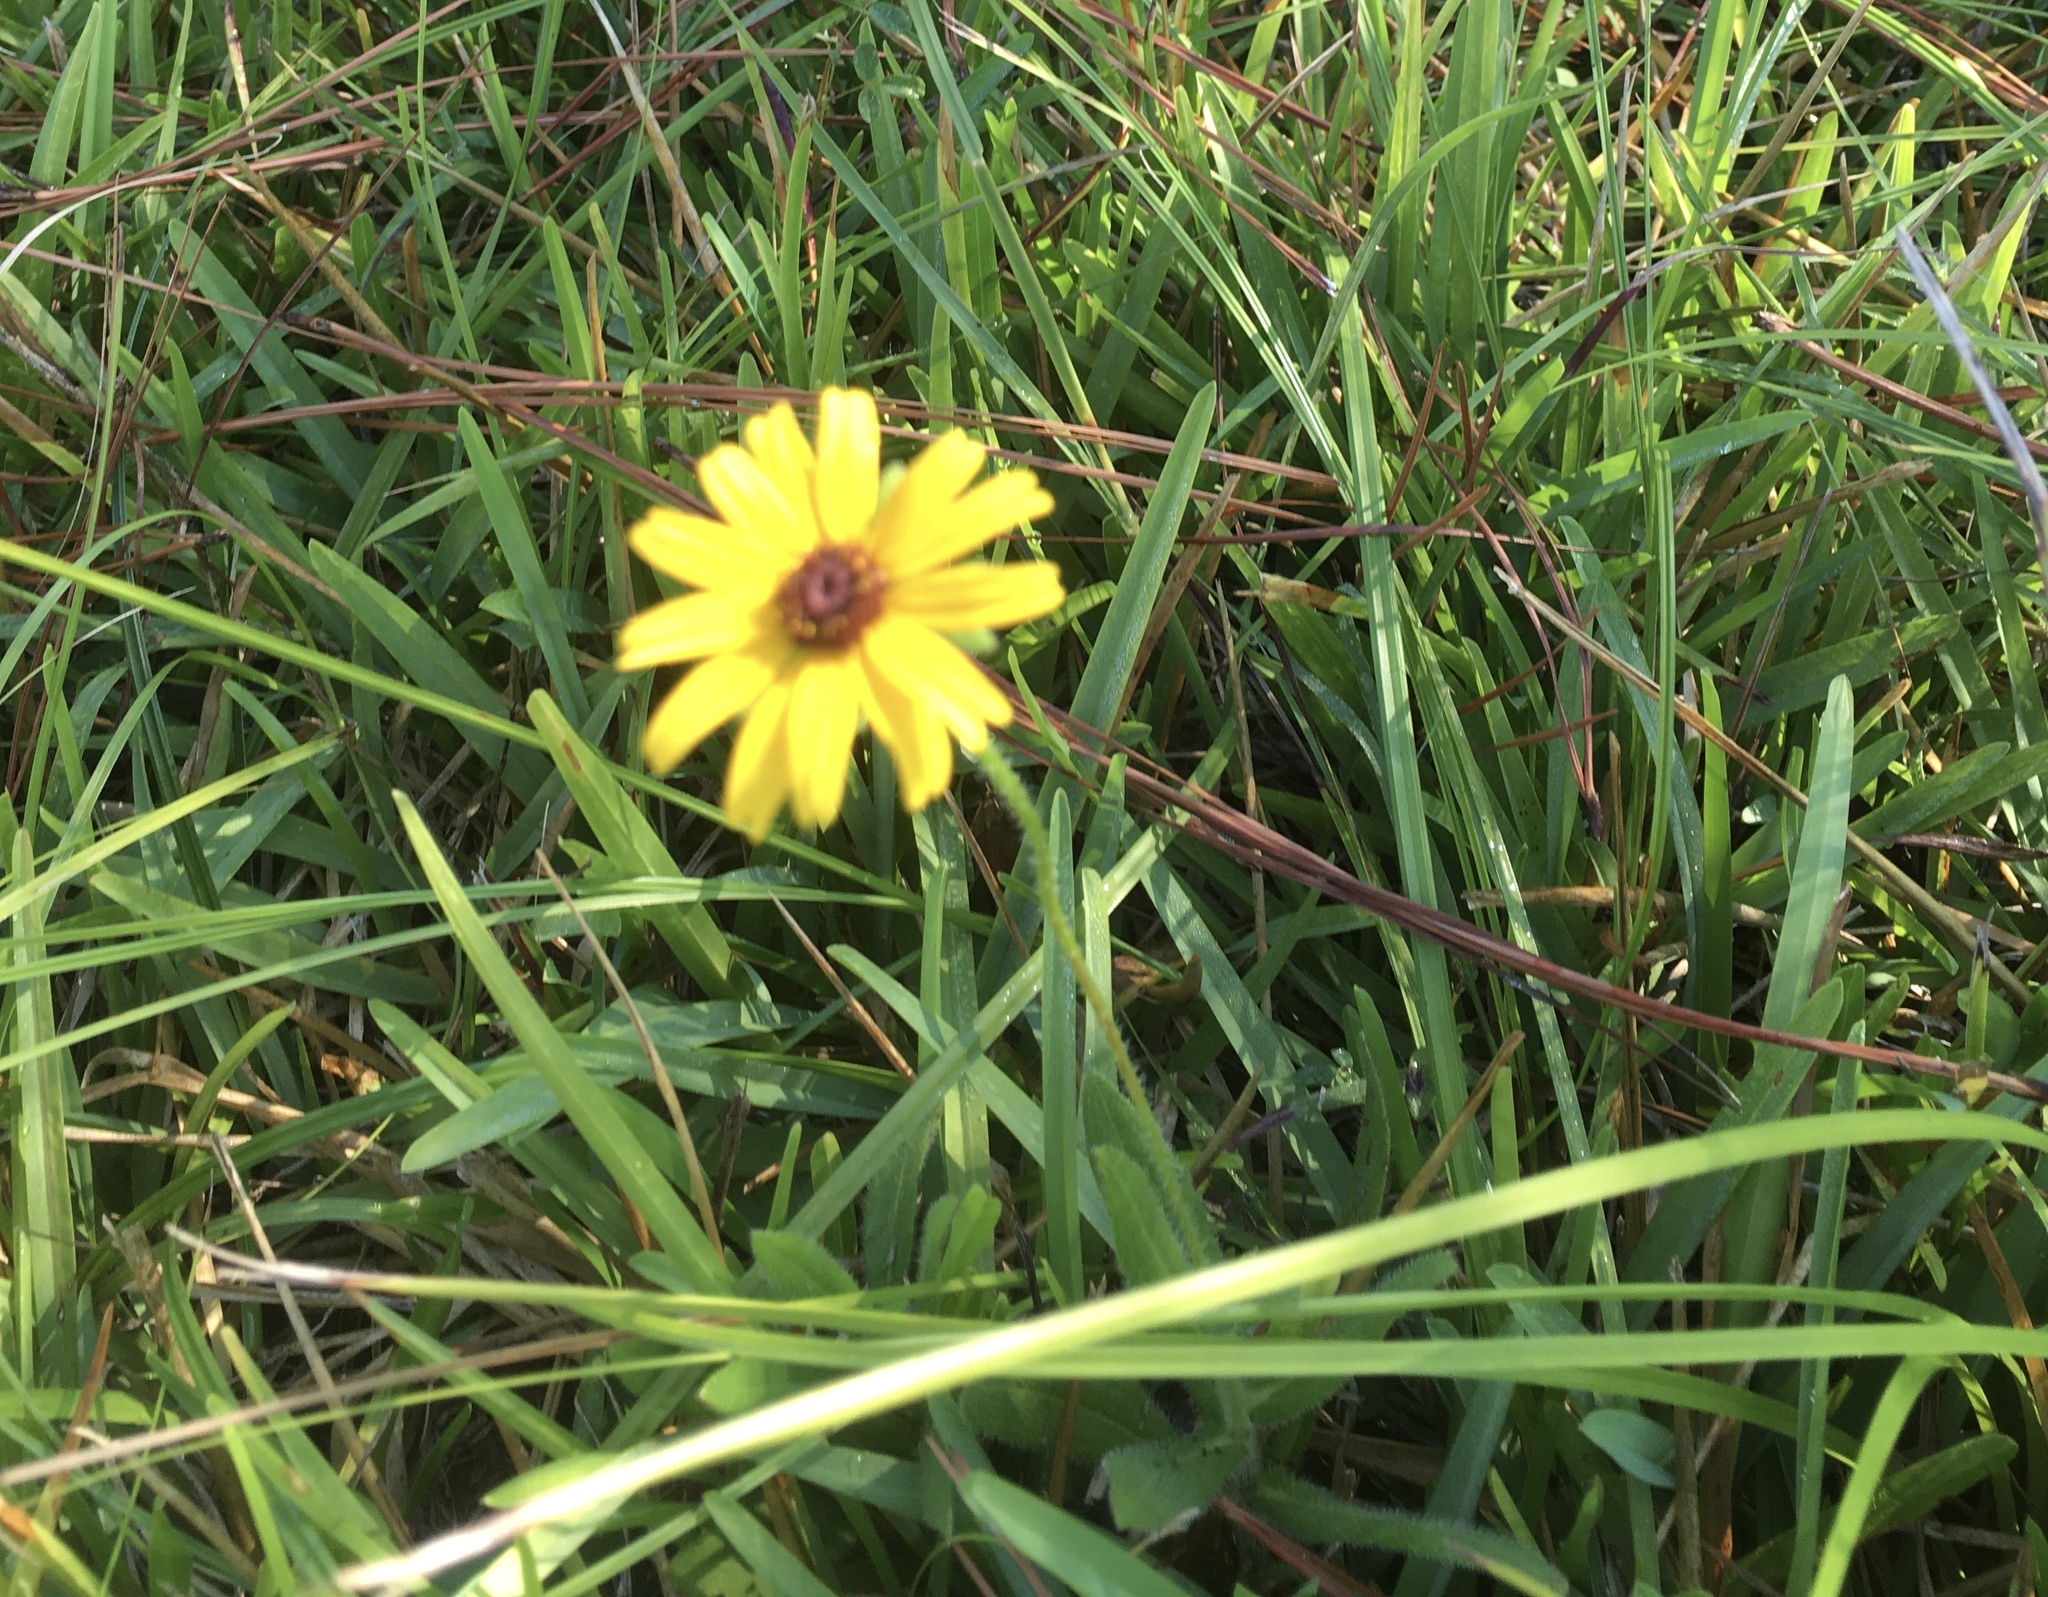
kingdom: Plantae
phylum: Tracheophyta
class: Magnoliopsida
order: Asterales
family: Asteraceae
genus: Rudbeckia
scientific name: Rudbeckia hirta
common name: Black-eyed-susan
